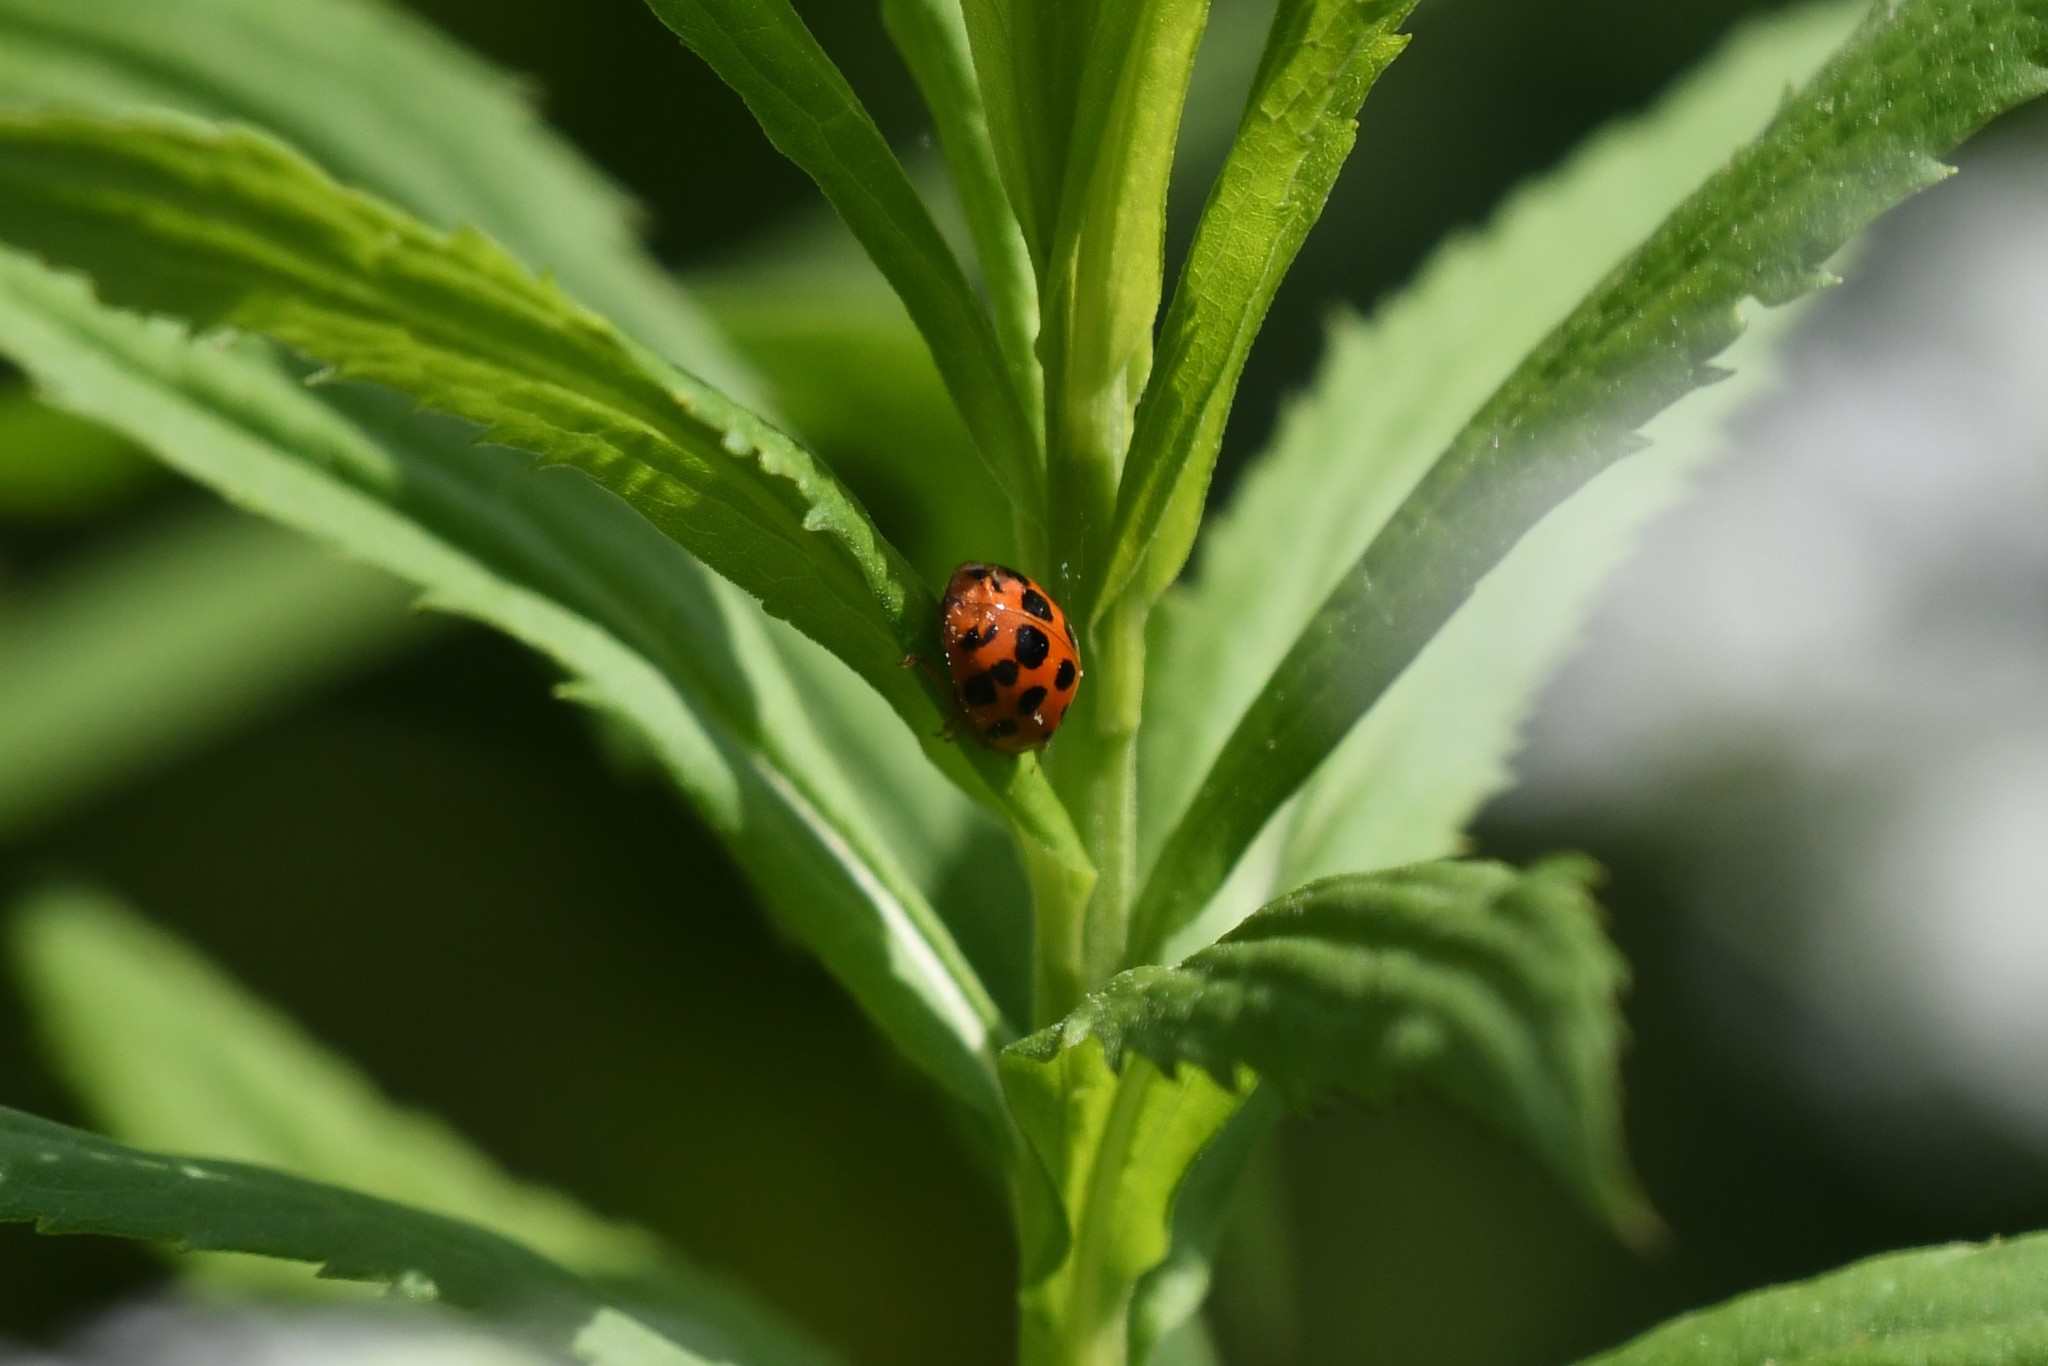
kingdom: Animalia
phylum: Arthropoda
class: Insecta
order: Coleoptera
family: Coccinellidae
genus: Harmonia
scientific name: Harmonia axyridis
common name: Harlequin ladybird
